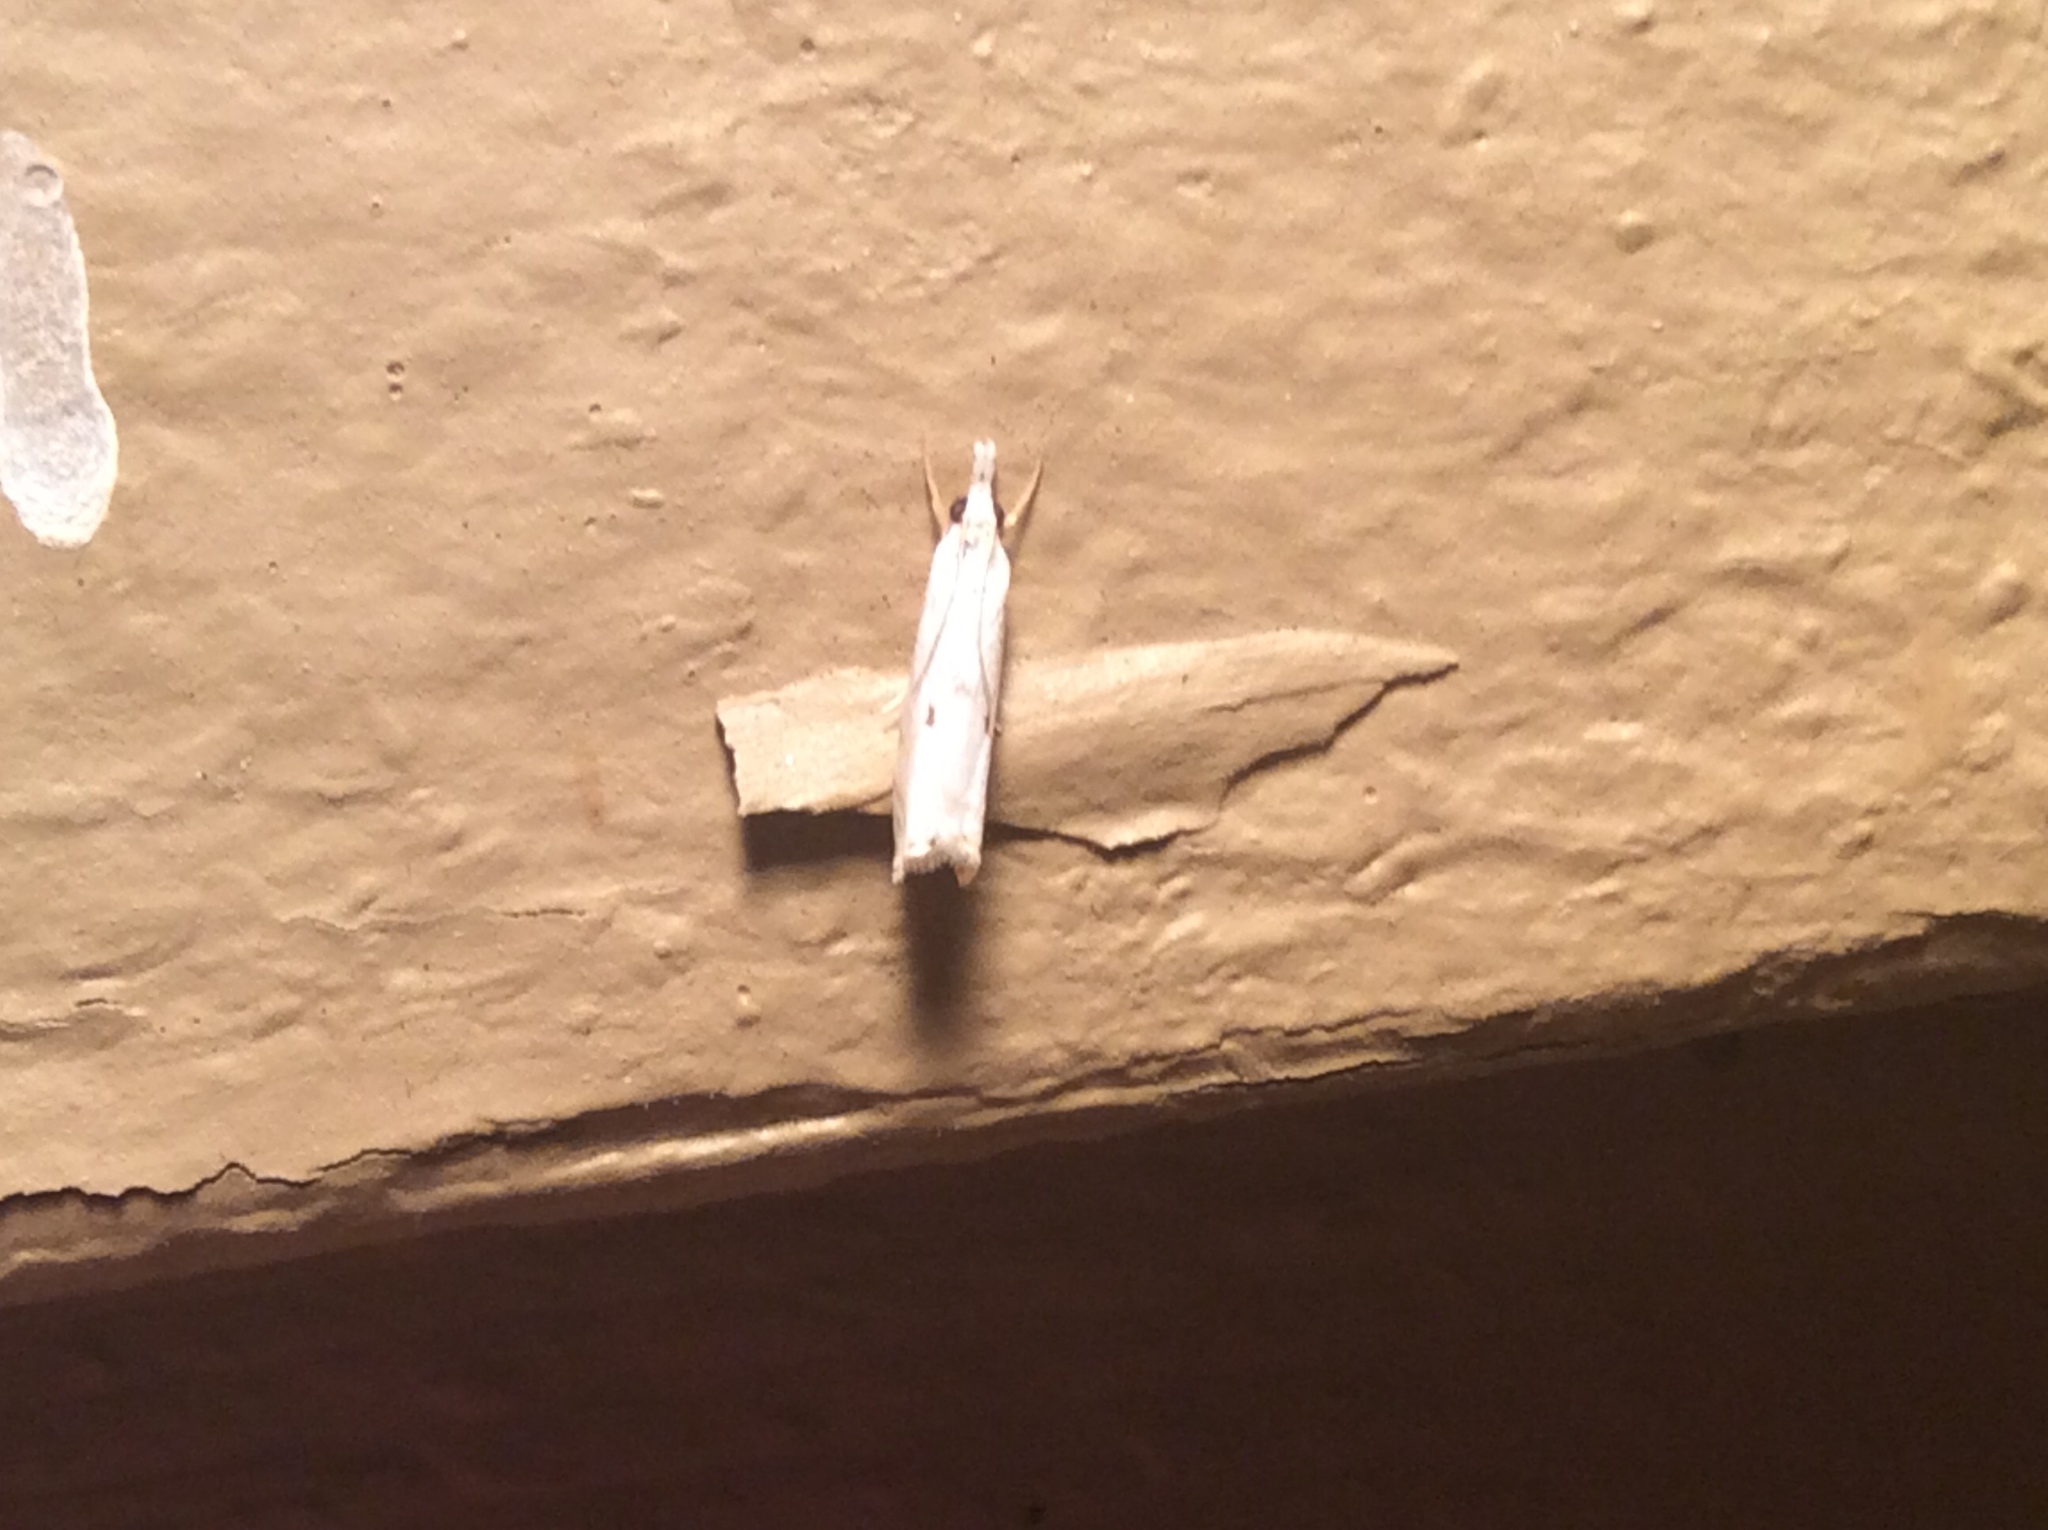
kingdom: Animalia
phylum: Arthropoda
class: Insecta
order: Lepidoptera
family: Crambidae
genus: Microcrambus
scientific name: Microcrambus biguttellus
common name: Gold-stripe grass-veneer moth
